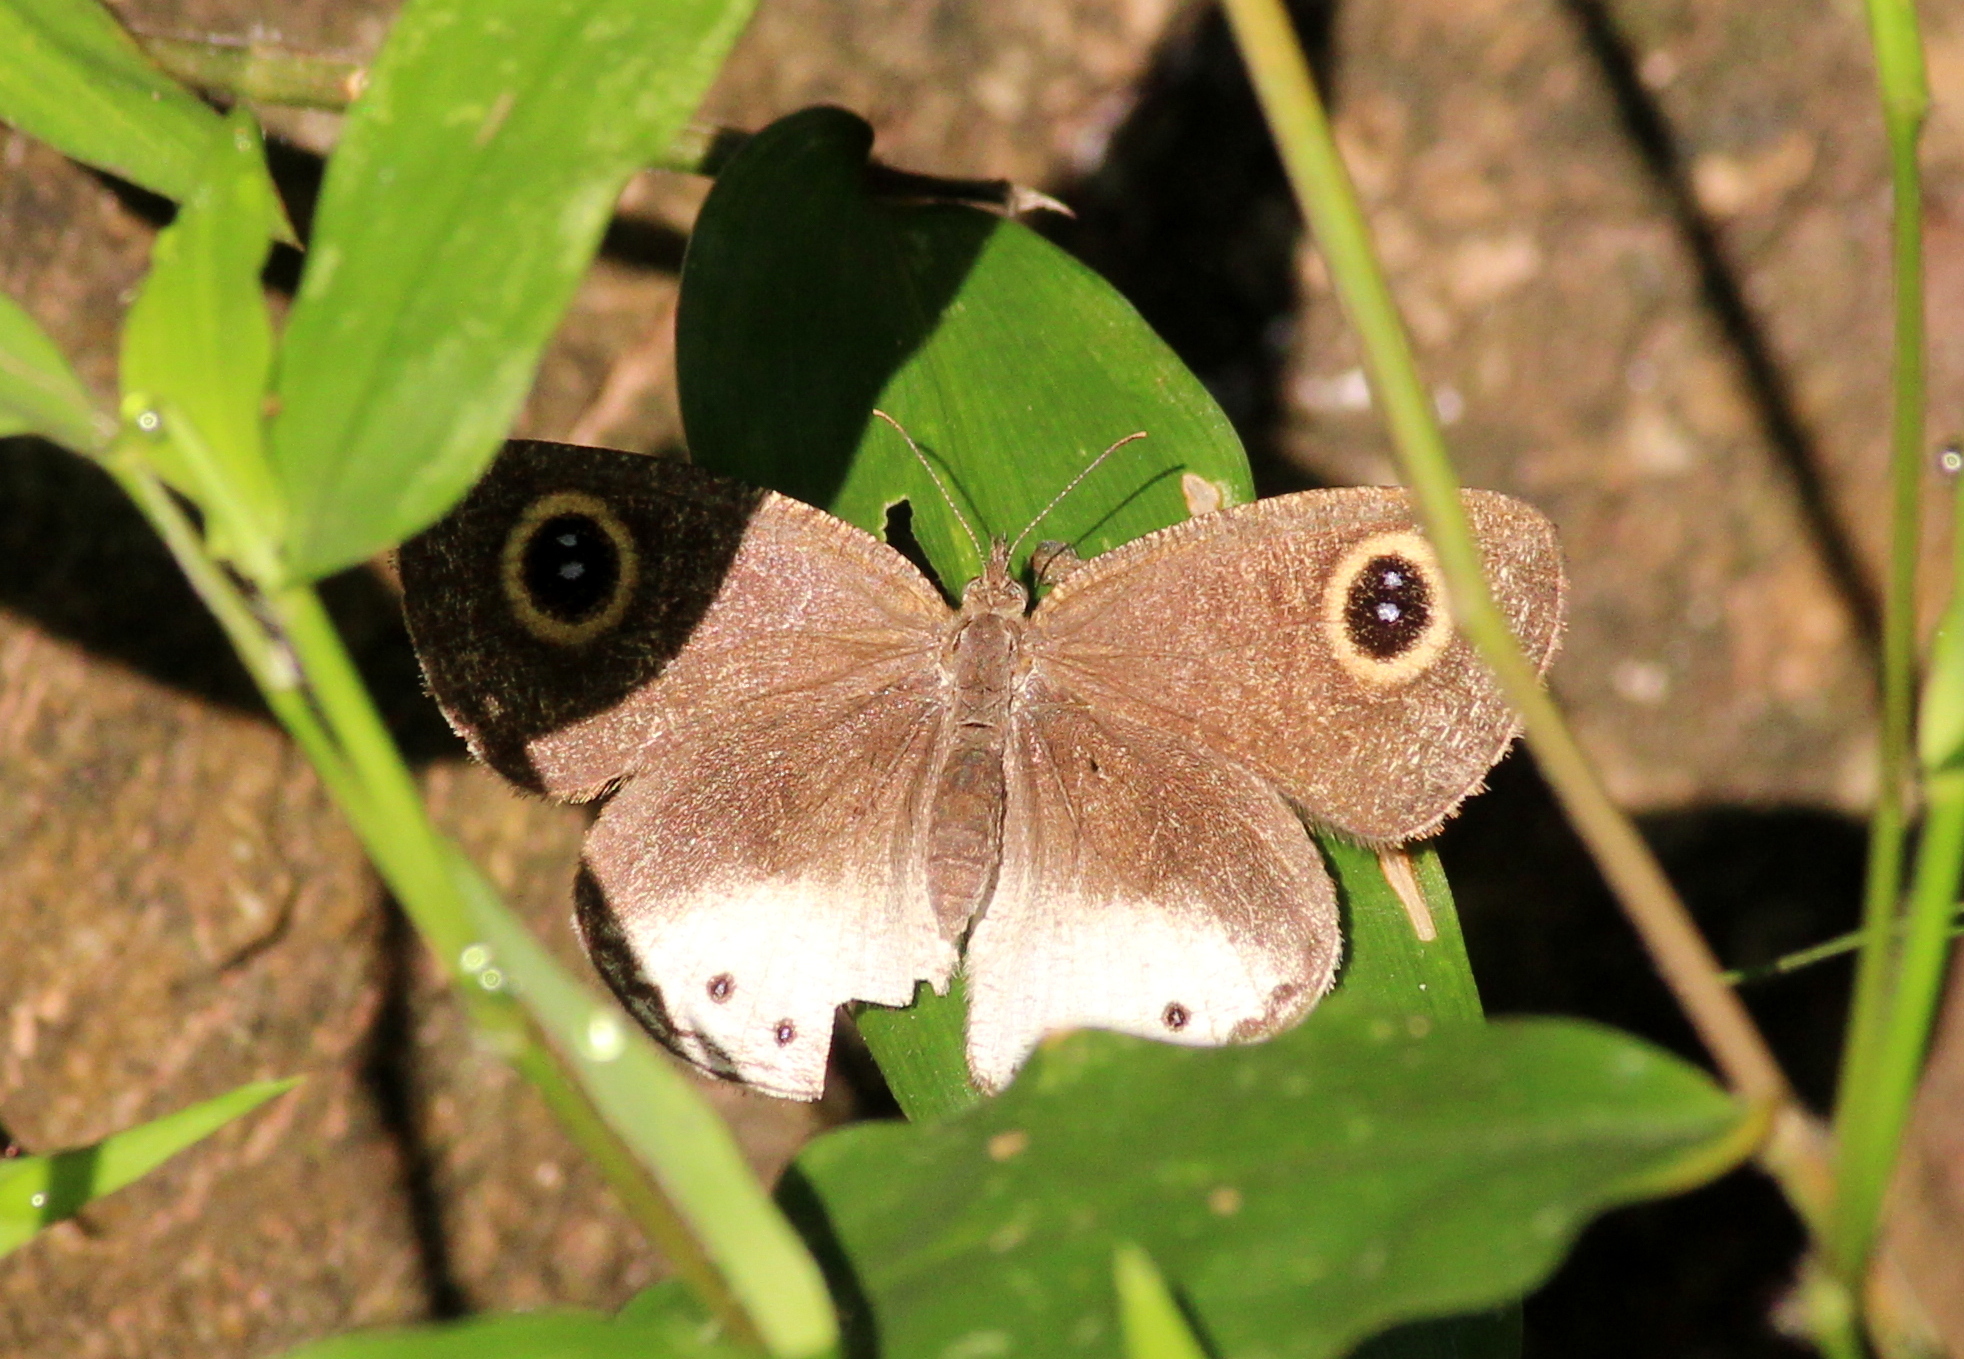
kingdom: Animalia
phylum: Arthropoda
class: Insecta
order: Lepidoptera
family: Nymphalidae
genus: Ypthima
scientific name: Ypthima ceylonica
